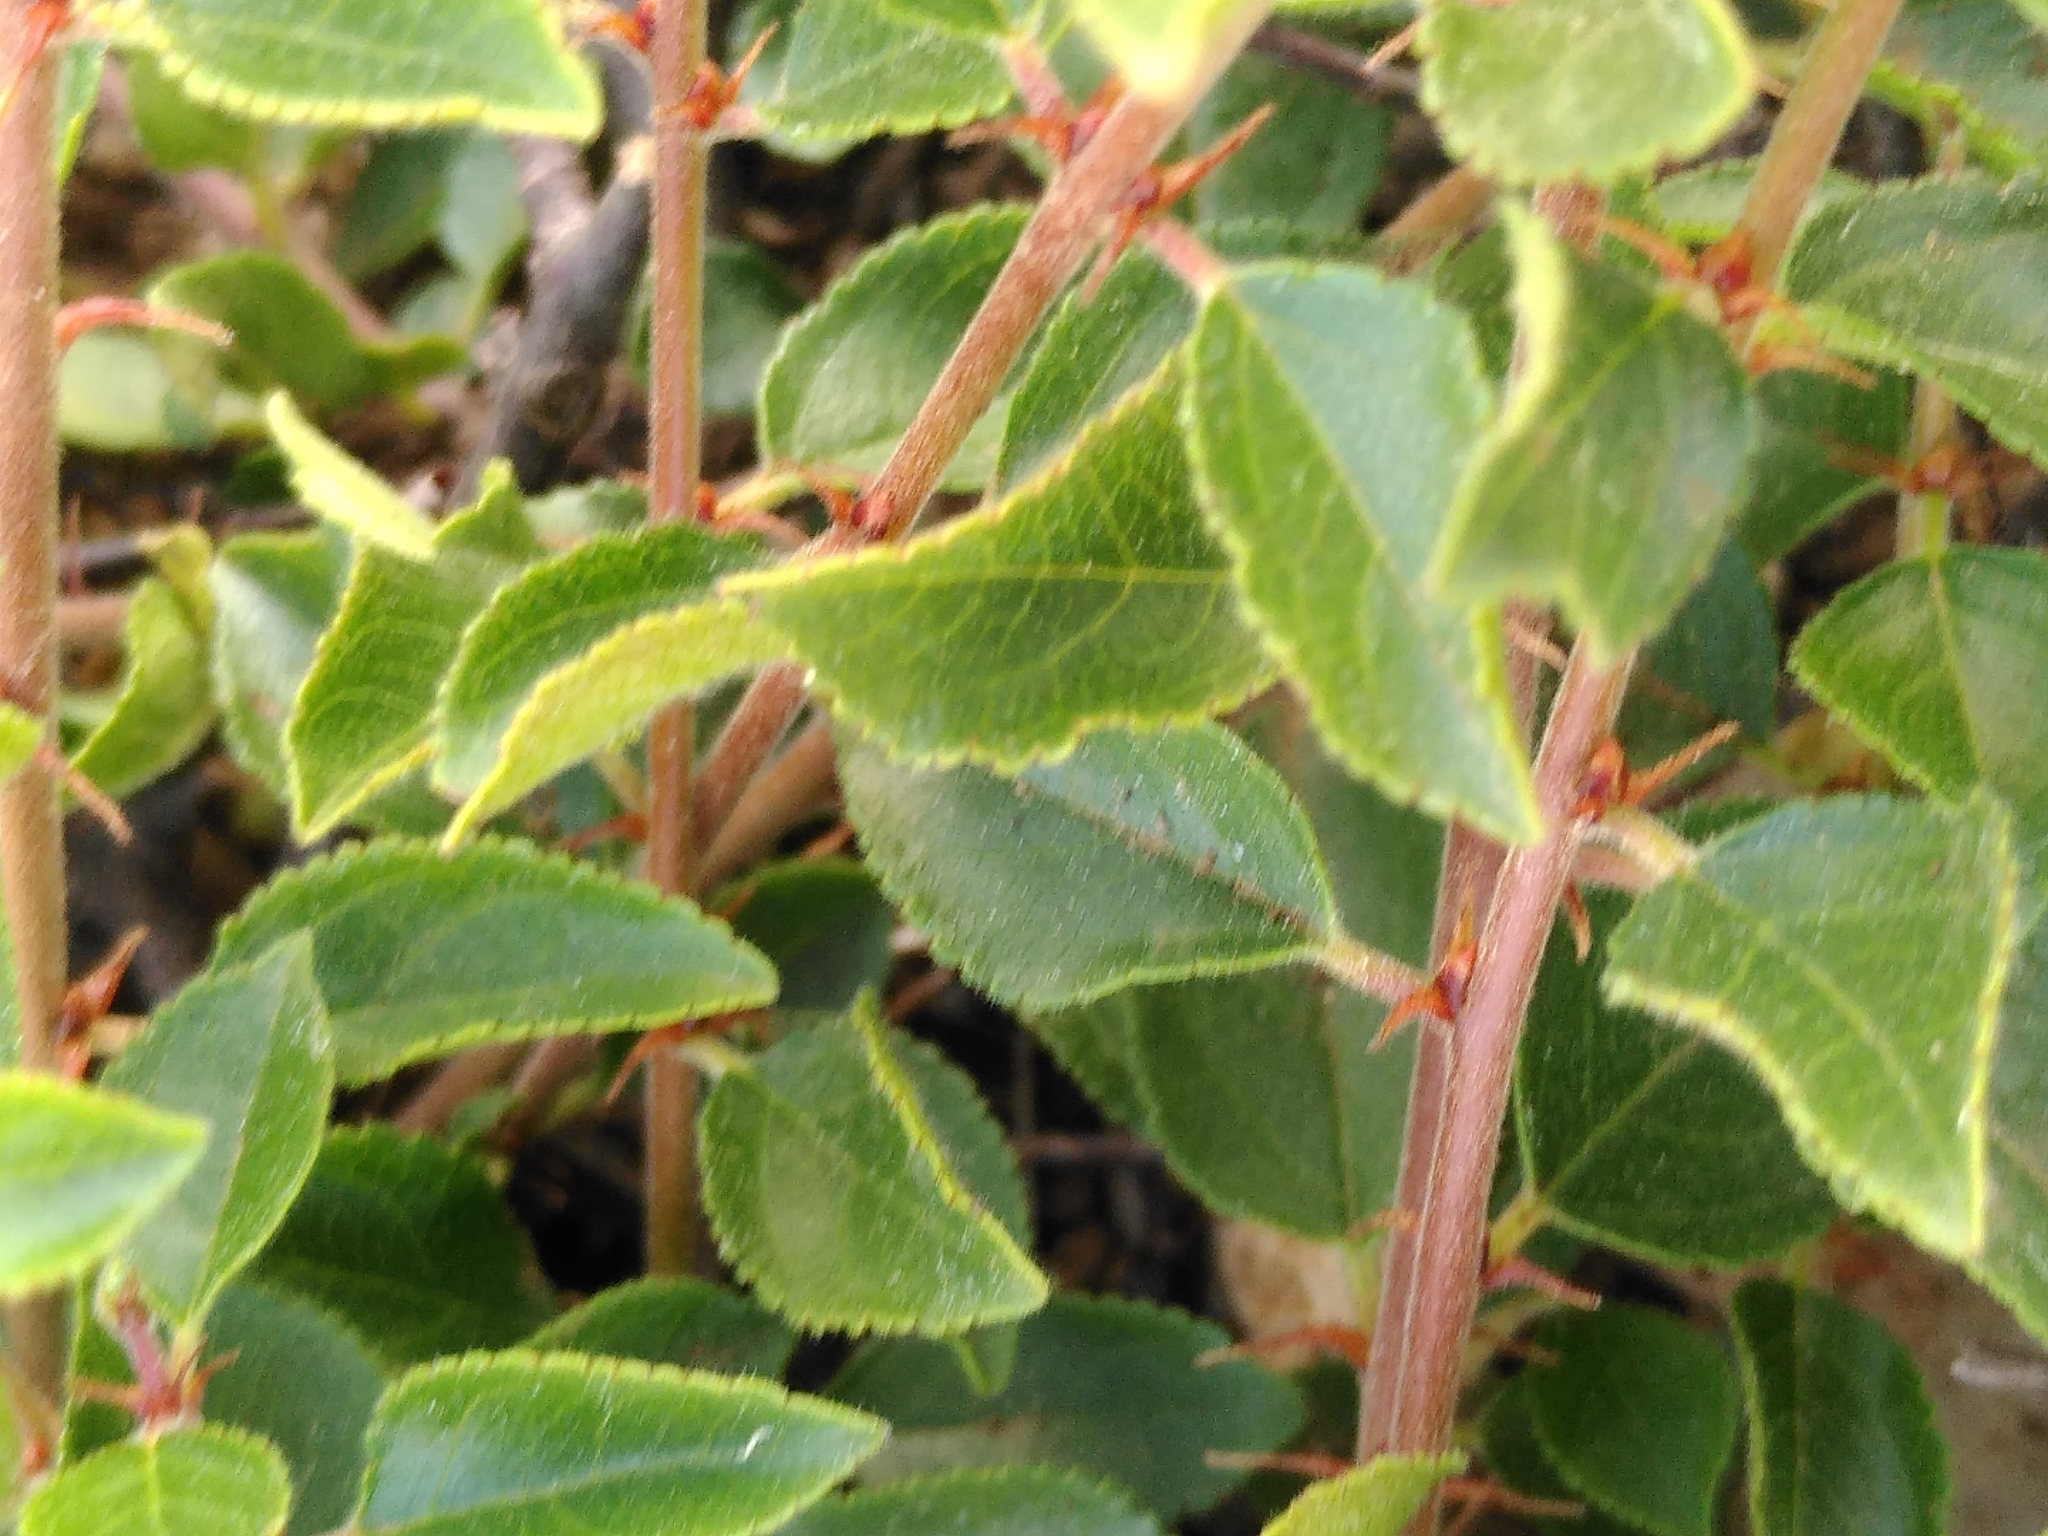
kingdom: Plantae
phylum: Tracheophyta
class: Magnoliopsida
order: Rosales
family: Rhamnaceae
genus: Rhamnus
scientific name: Rhamnus saxatilis
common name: Rock buckthorn
